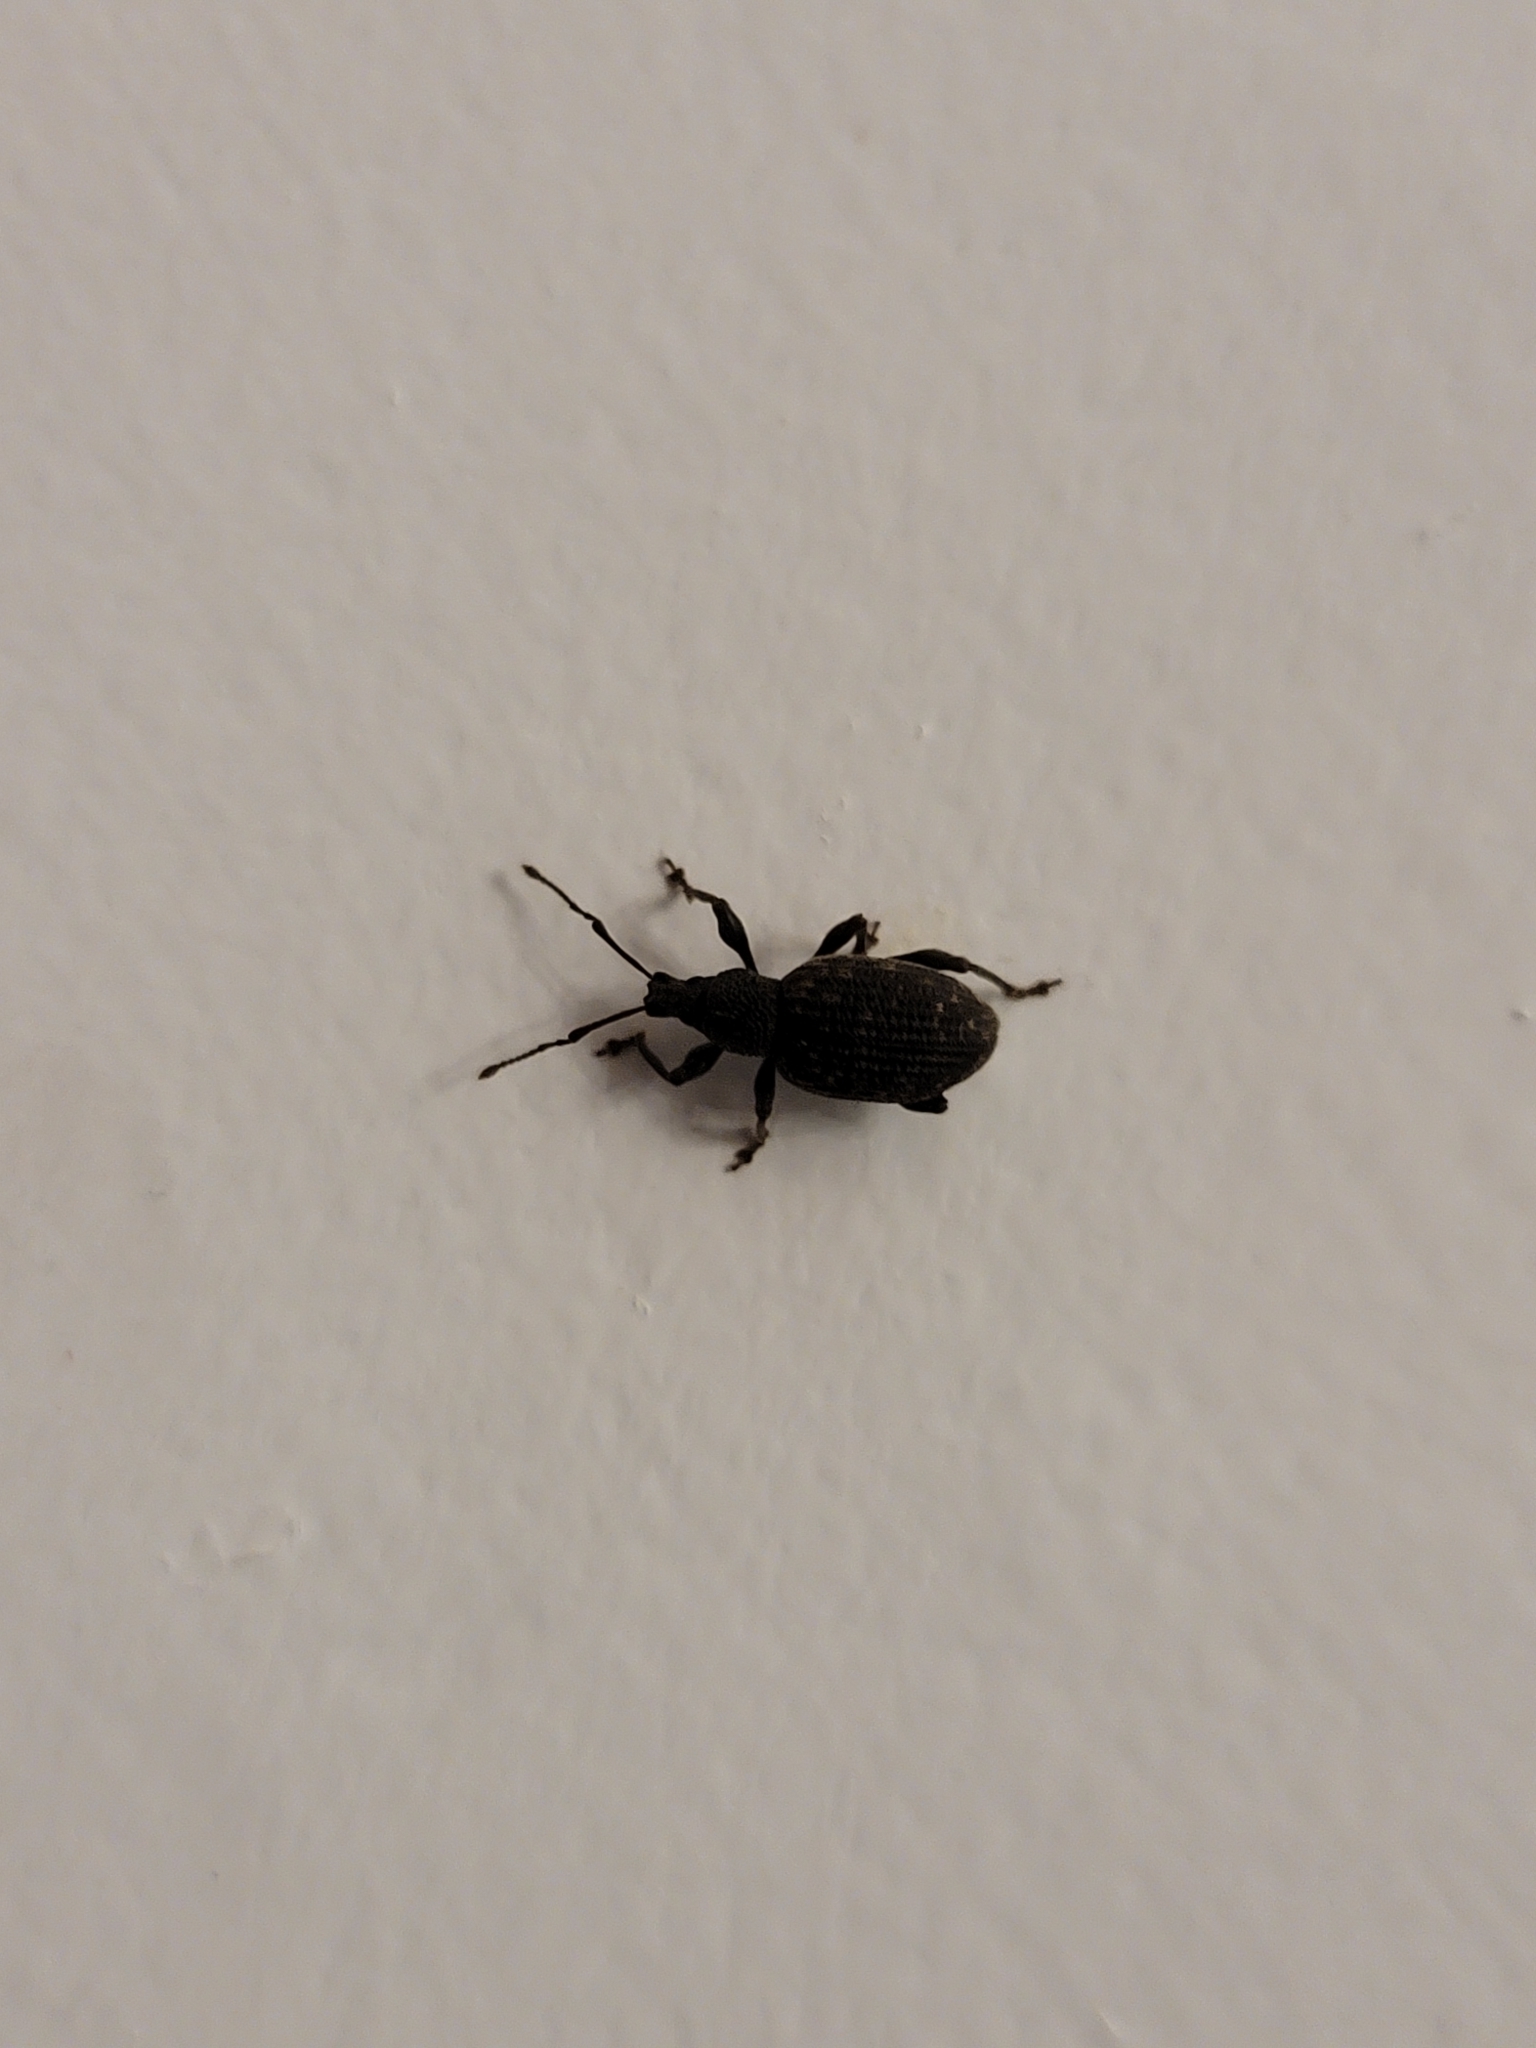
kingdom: Animalia
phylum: Arthropoda
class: Insecta
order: Coleoptera
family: Curculionidae
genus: Otiorhynchus
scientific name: Otiorhynchus sulcatus
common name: Black vine weevil
